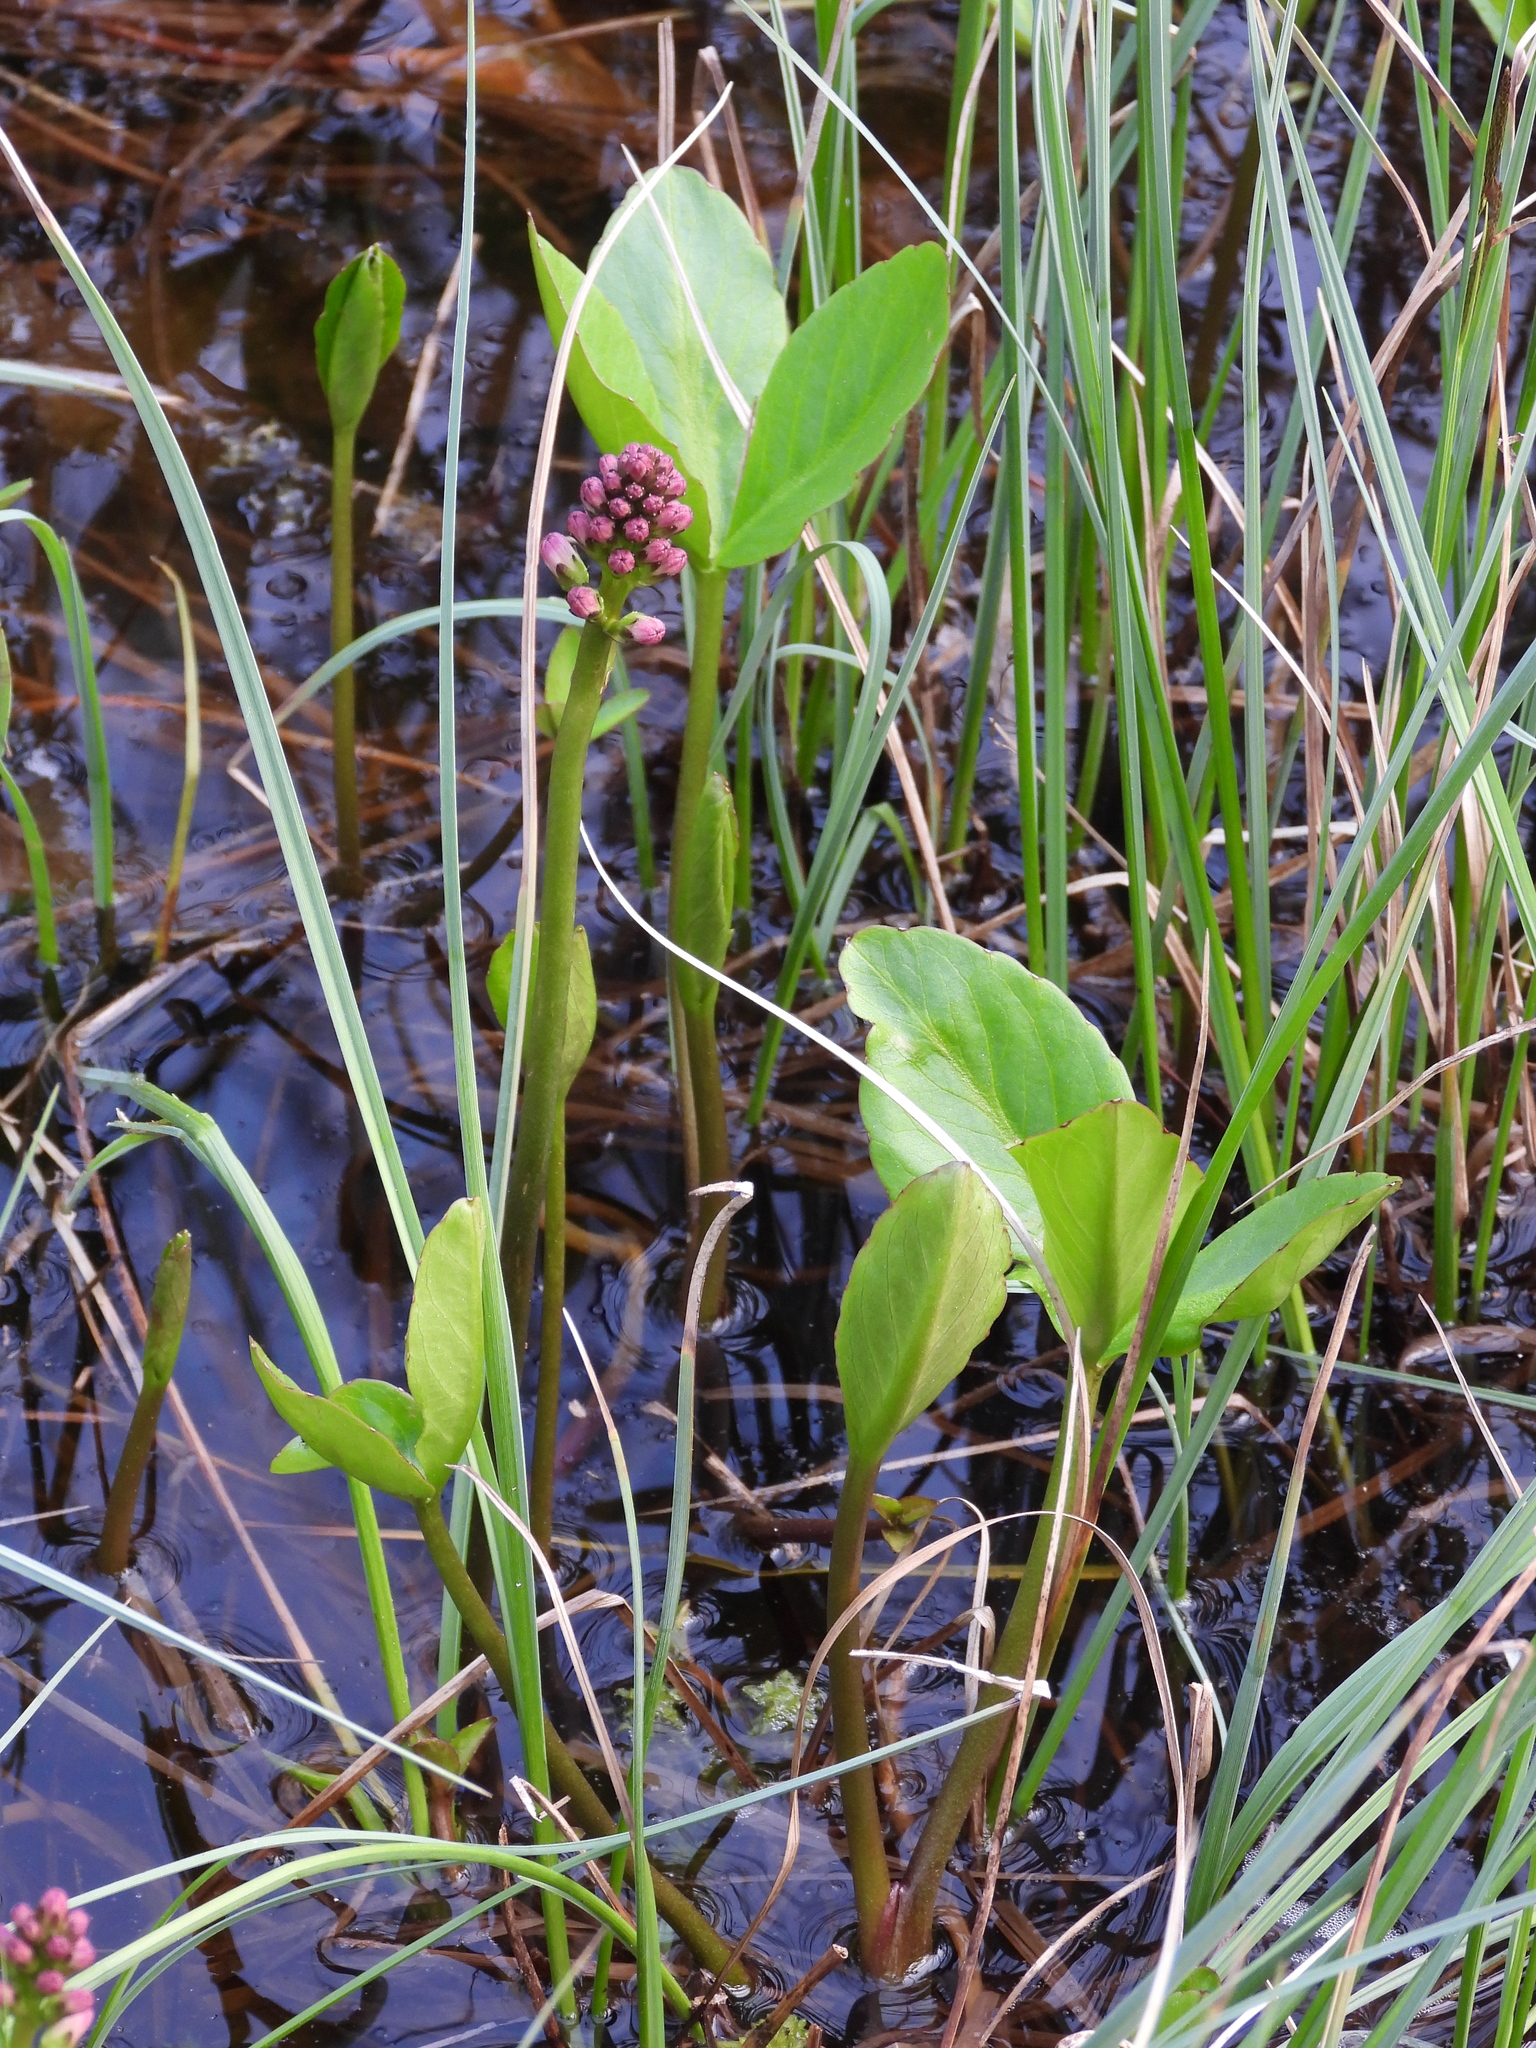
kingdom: Plantae
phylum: Tracheophyta
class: Magnoliopsida
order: Asterales
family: Menyanthaceae
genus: Menyanthes
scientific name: Menyanthes trifoliata
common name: Bogbean
